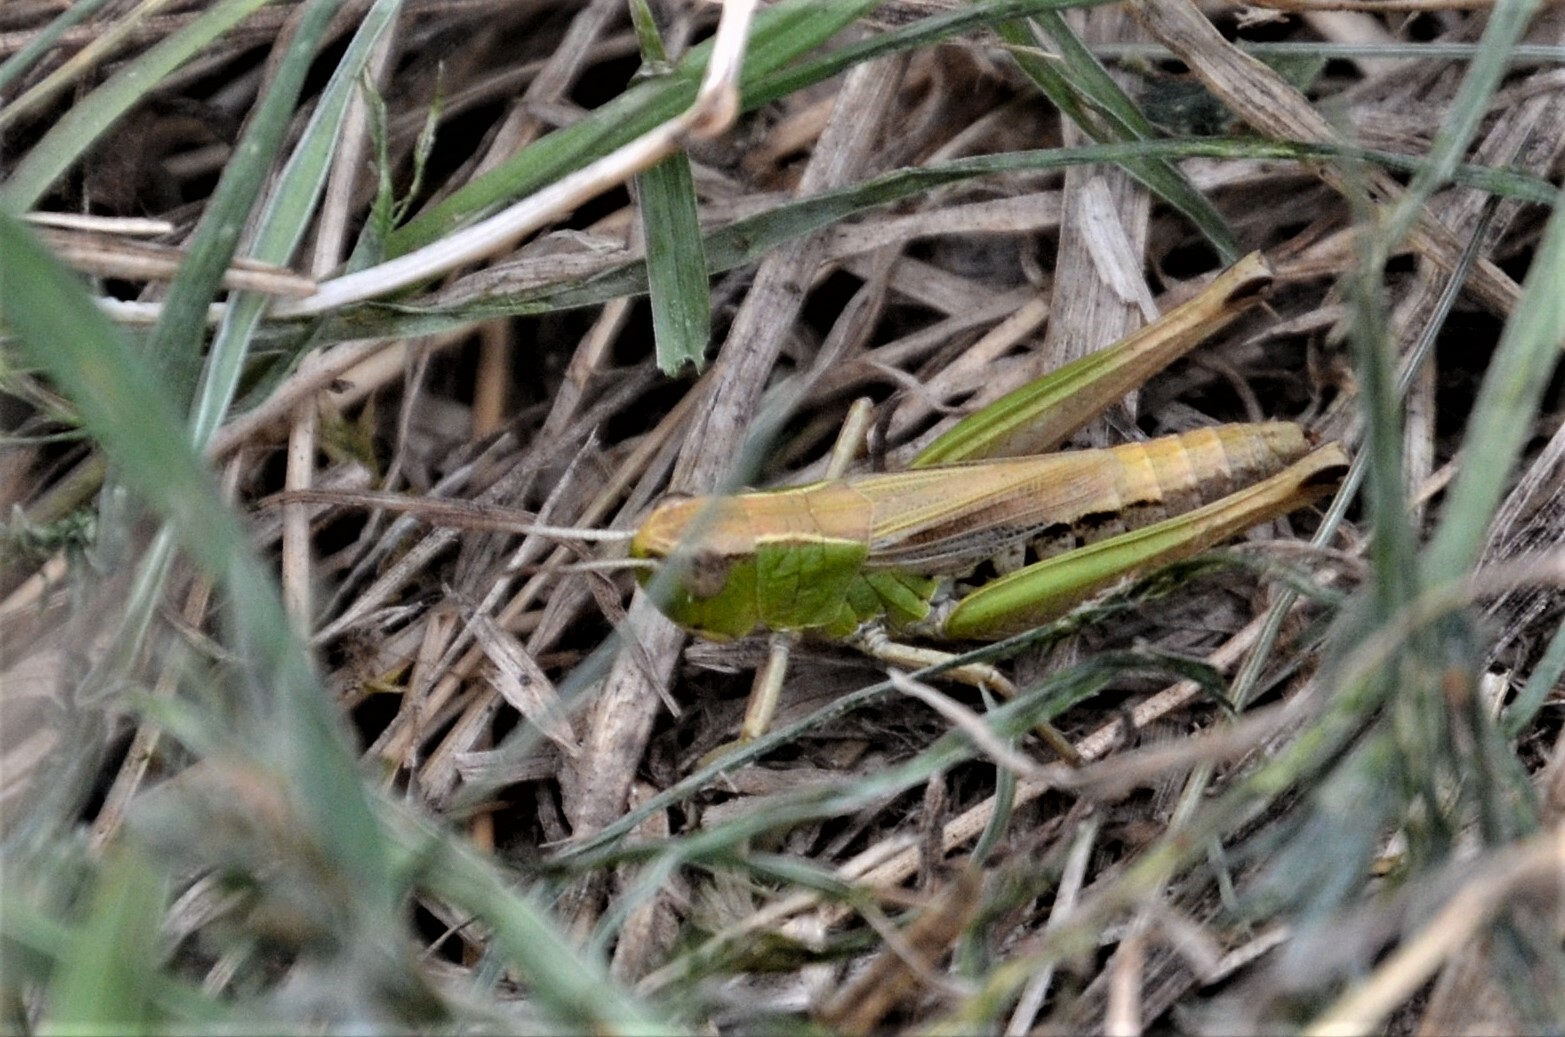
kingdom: Animalia
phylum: Arthropoda
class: Insecta
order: Orthoptera
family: Acrididae
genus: Pseudochorthippus
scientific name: Pseudochorthippus parallelus
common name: Meadow grasshopper
